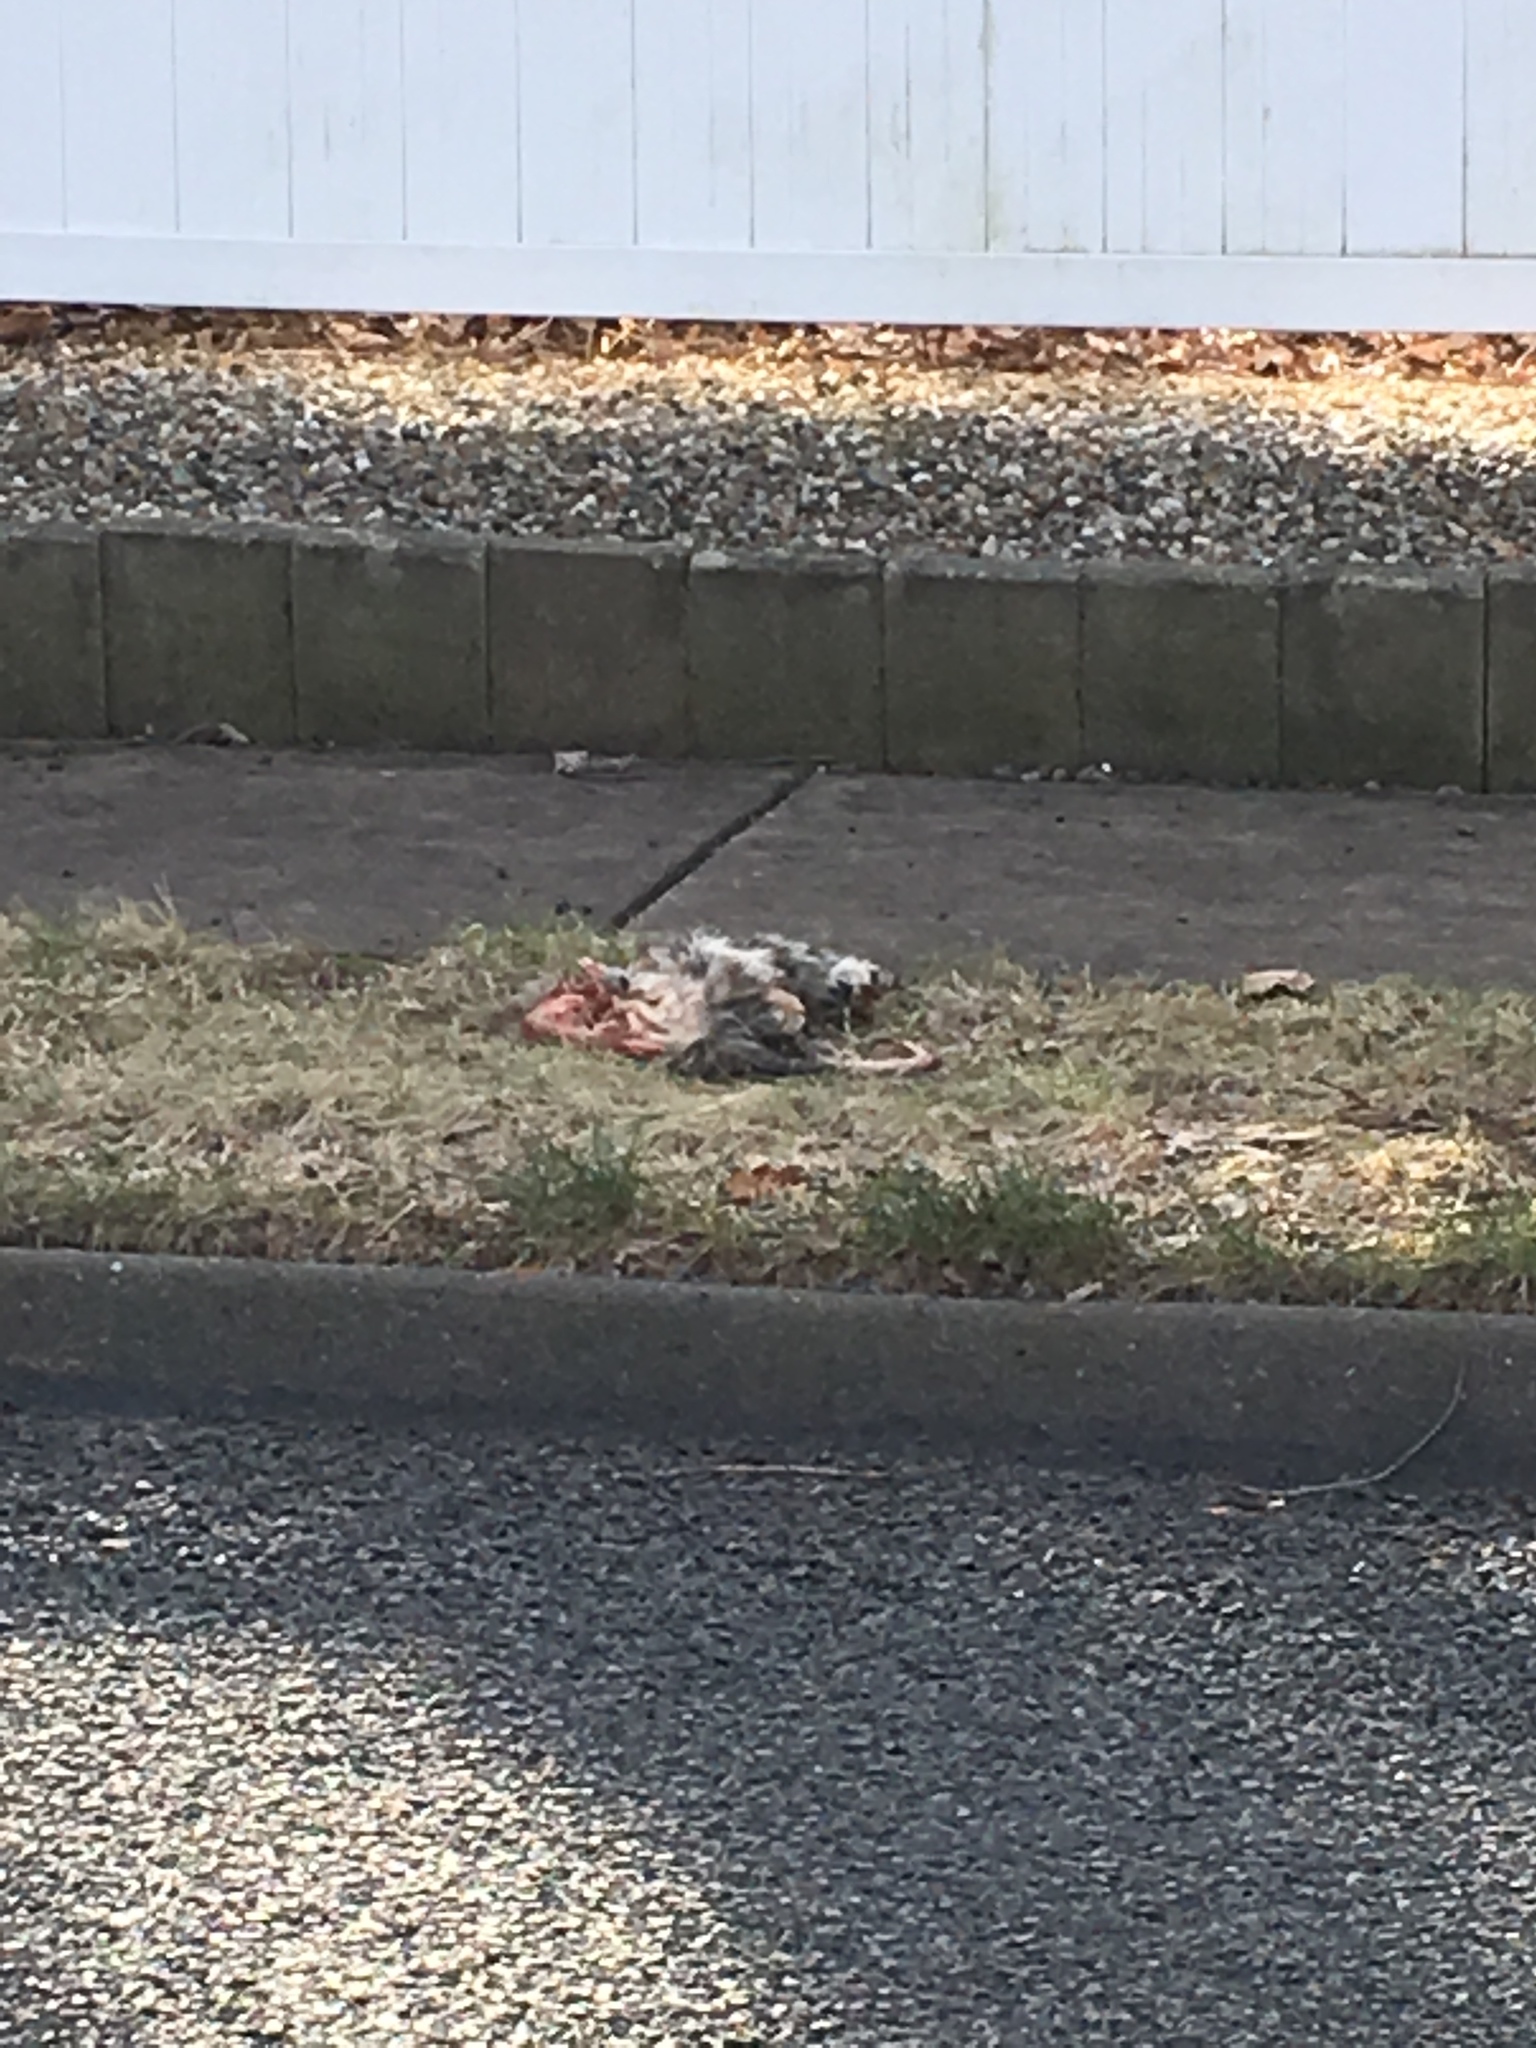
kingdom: Animalia
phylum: Chordata
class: Mammalia
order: Didelphimorphia
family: Didelphidae
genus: Didelphis
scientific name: Didelphis virginiana
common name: Virginia opossum
